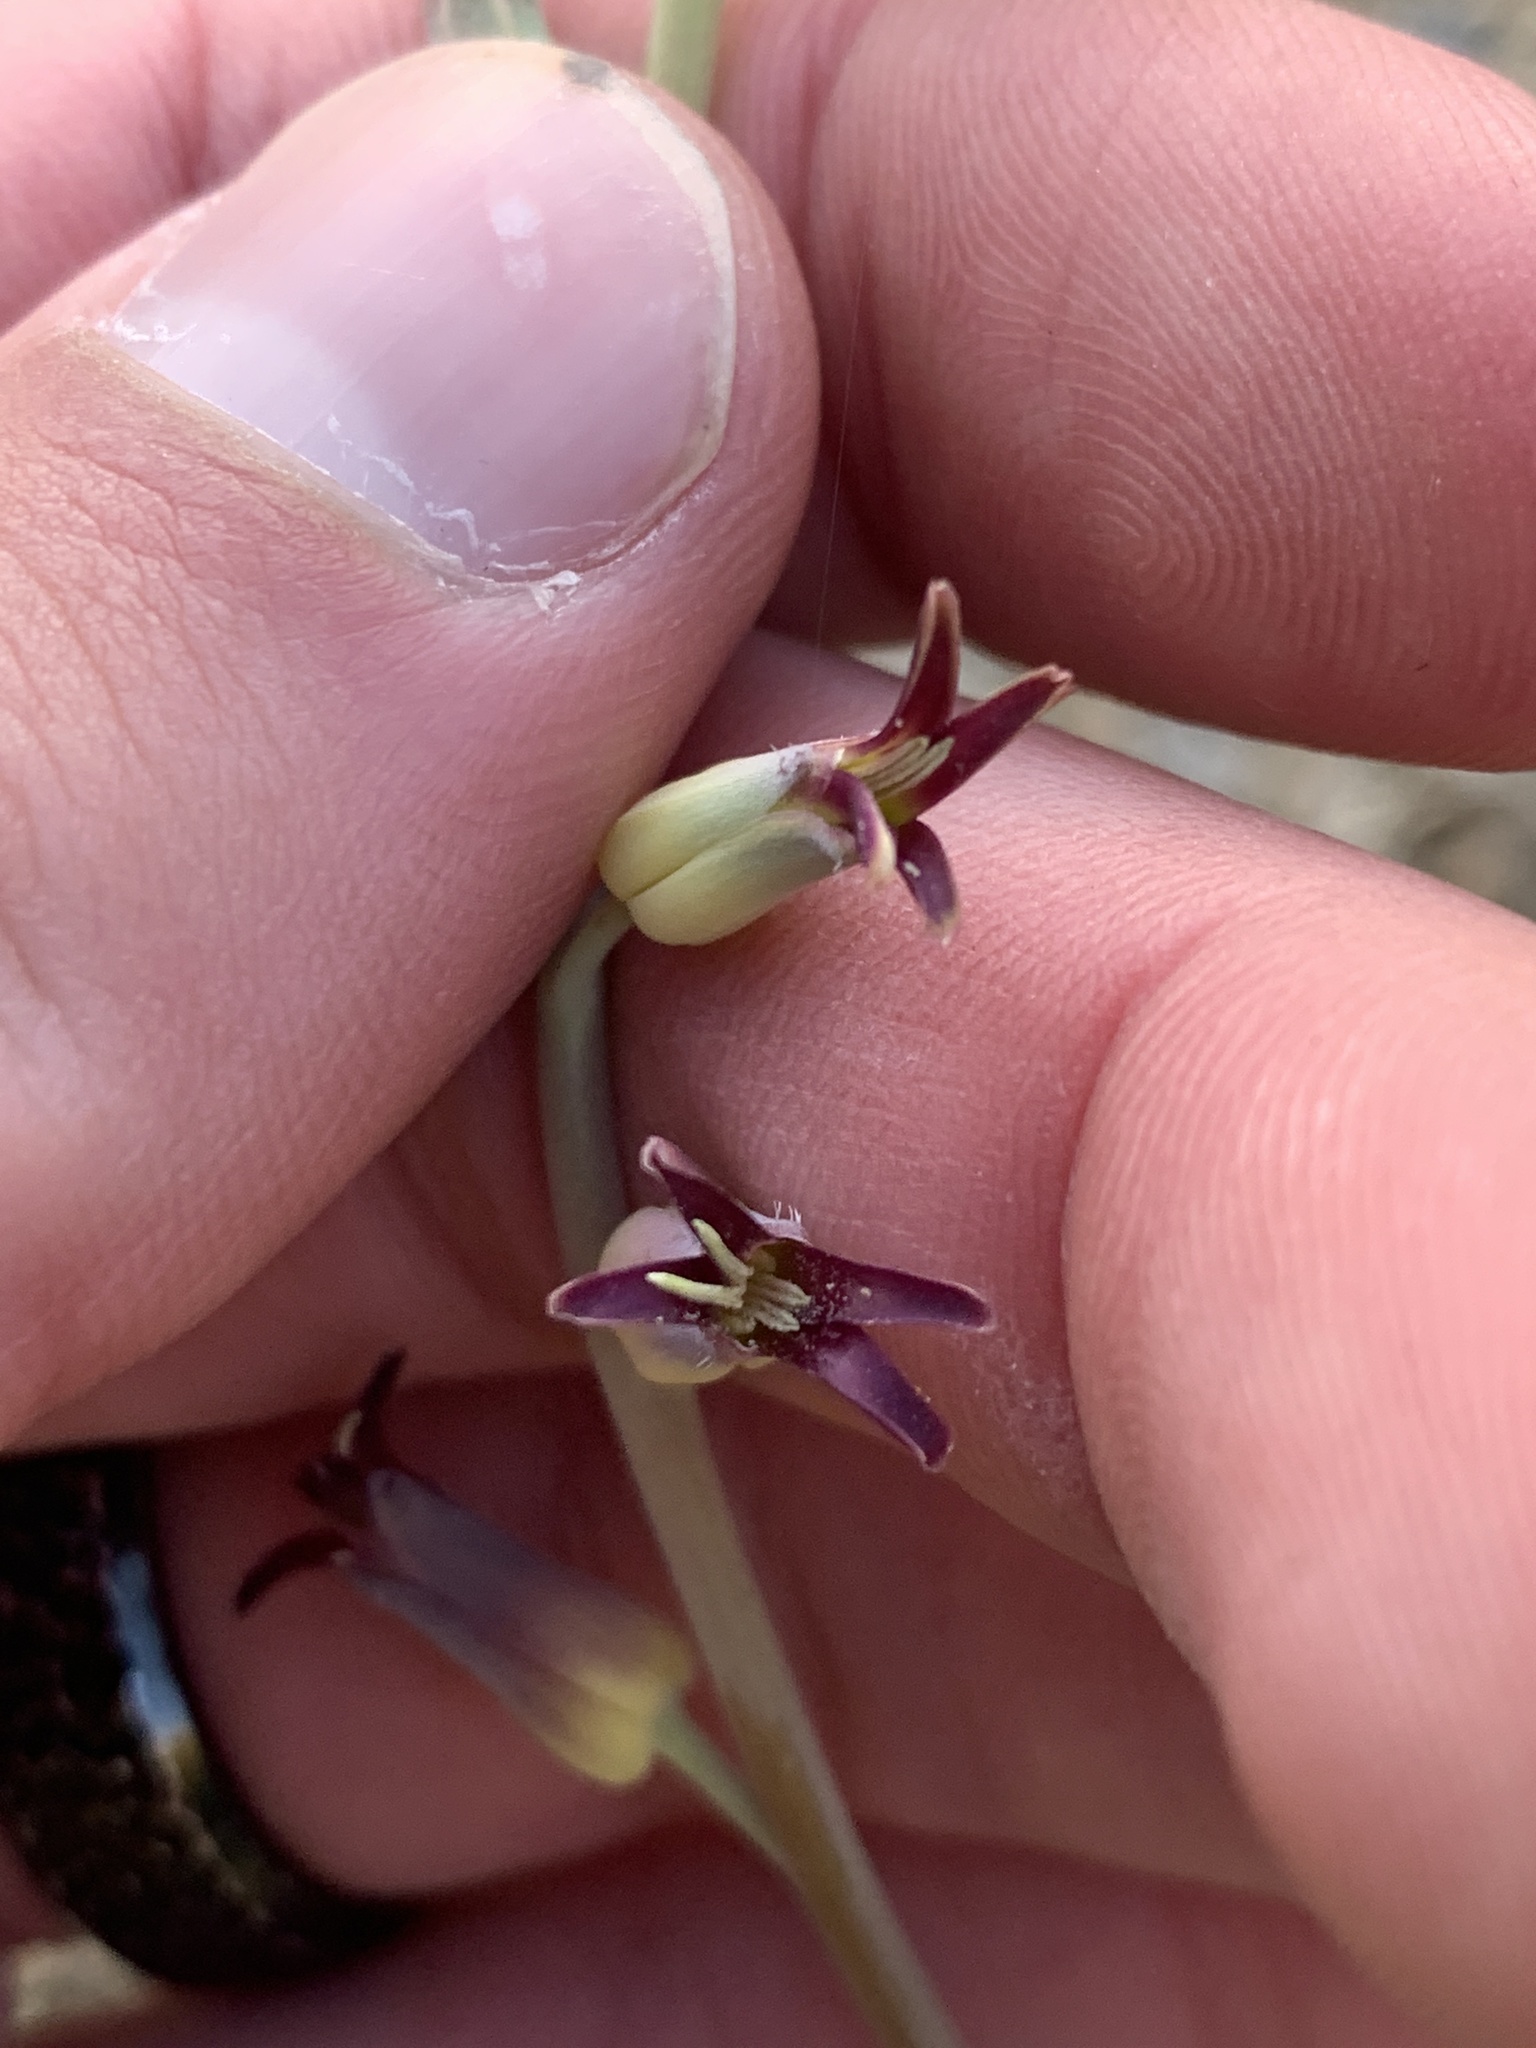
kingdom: Plantae
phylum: Tracheophyta
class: Magnoliopsida
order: Brassicales
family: Brassicaceae
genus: Streptanthus
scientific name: Streptanthus cordatus
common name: Heart-leaf jewel-flower
